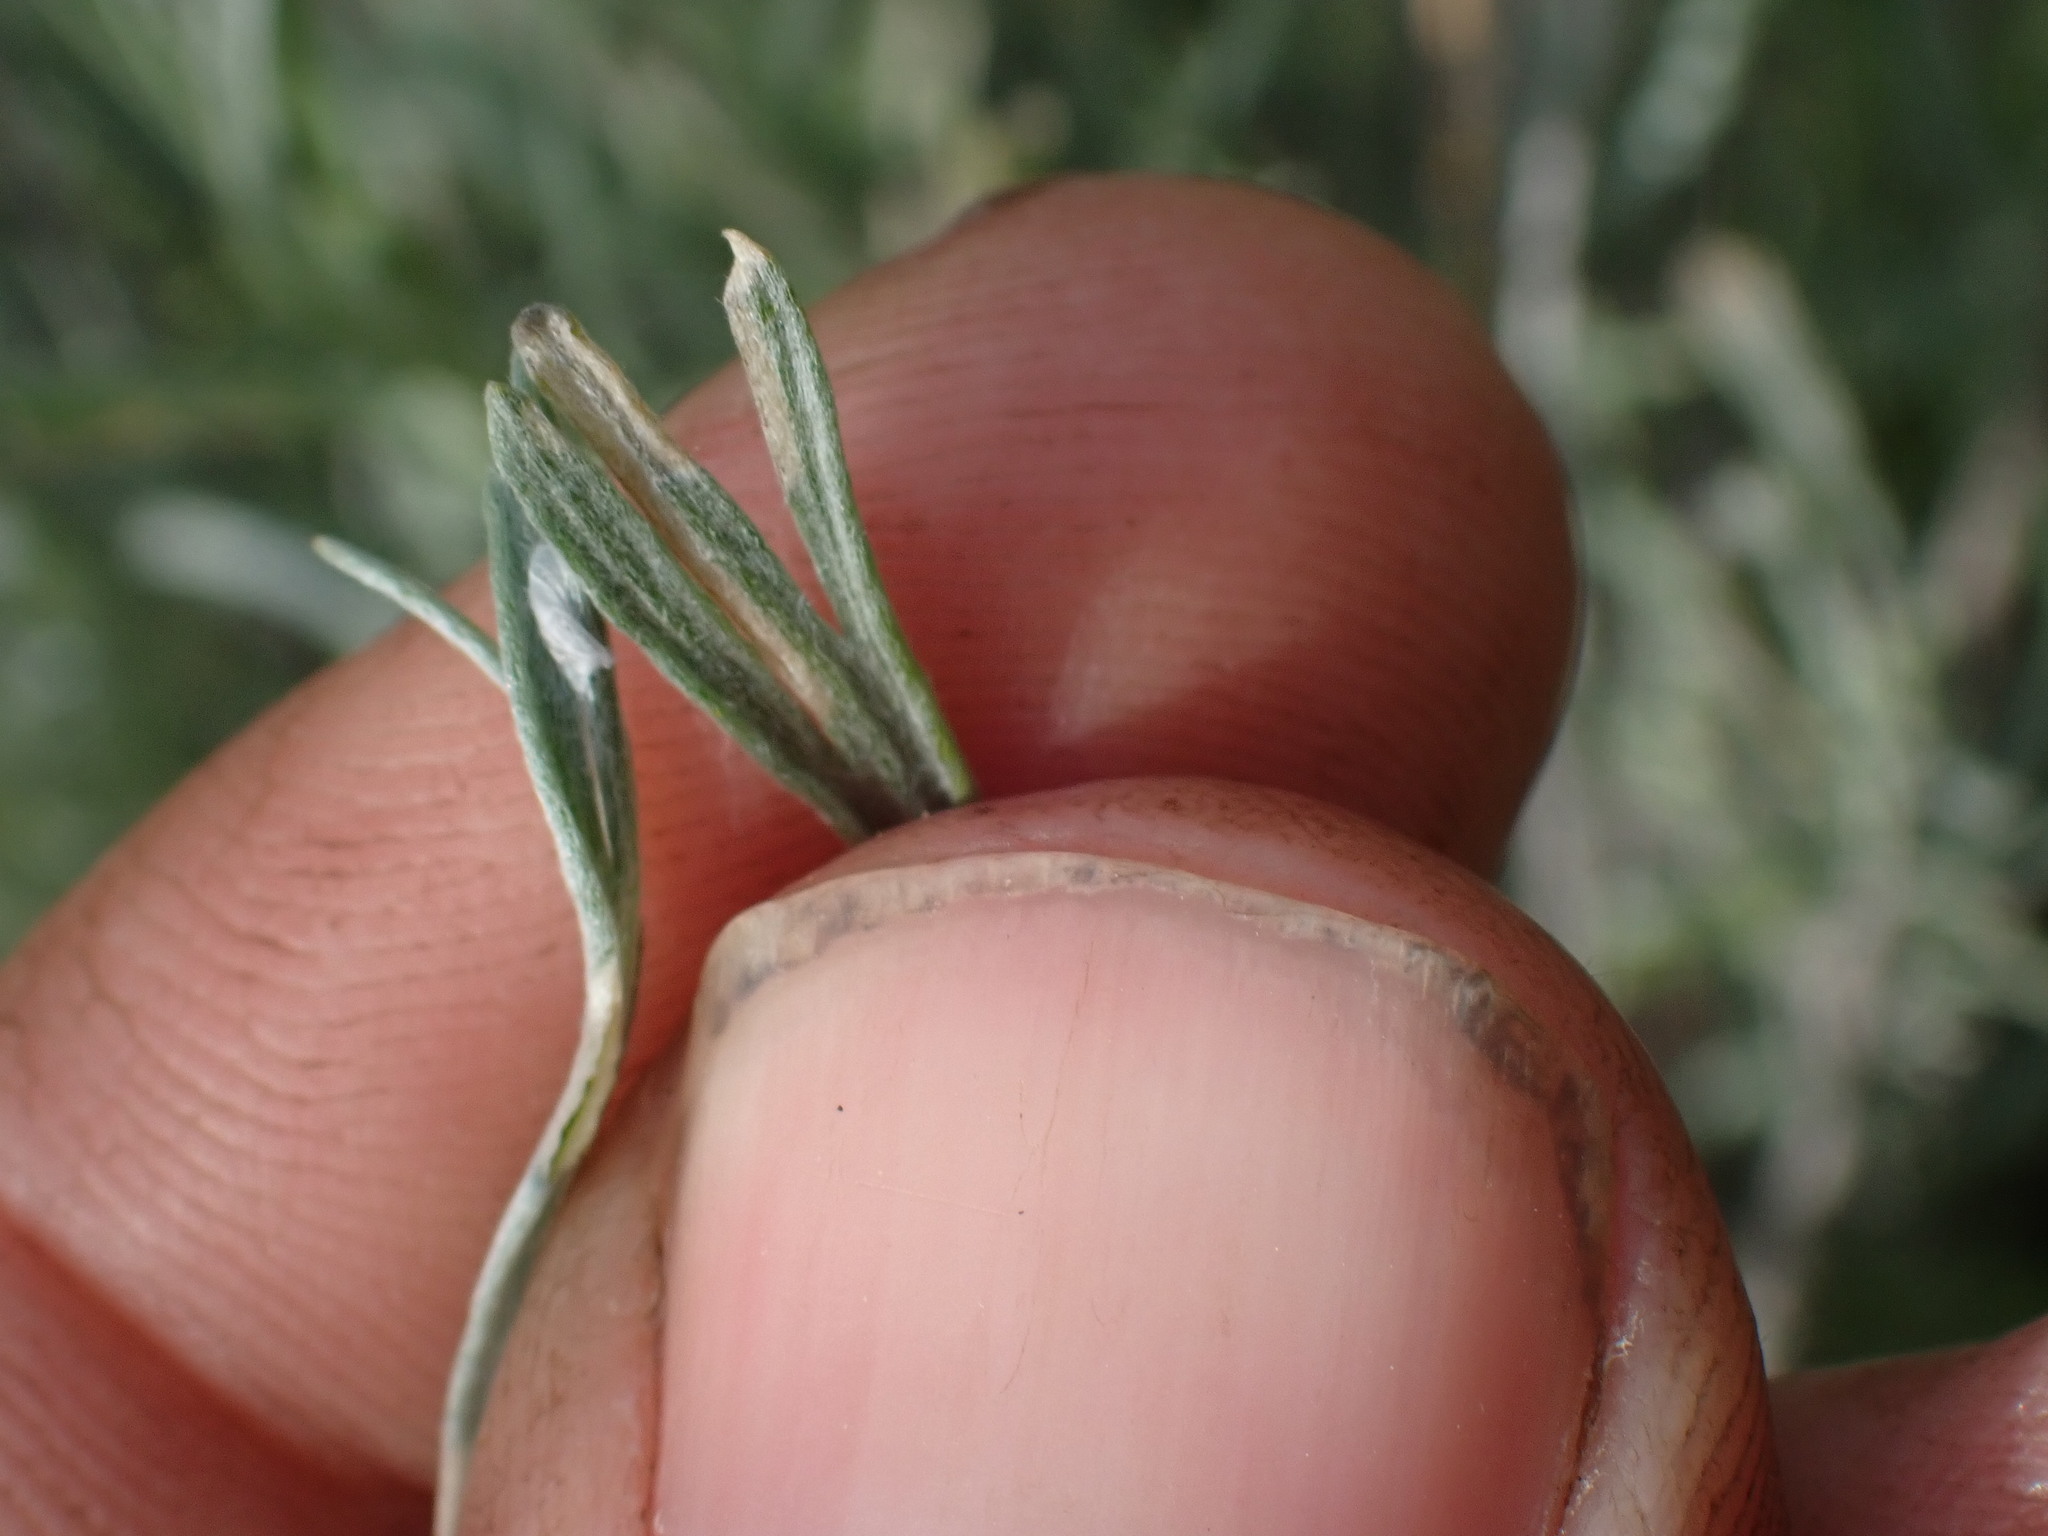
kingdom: Plantae
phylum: Tracheophyta
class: Magnoliopsida
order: Asterales
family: Asteraceae
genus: Artemisia
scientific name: Artemisia tripartita
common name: Three-tip sagebrush
